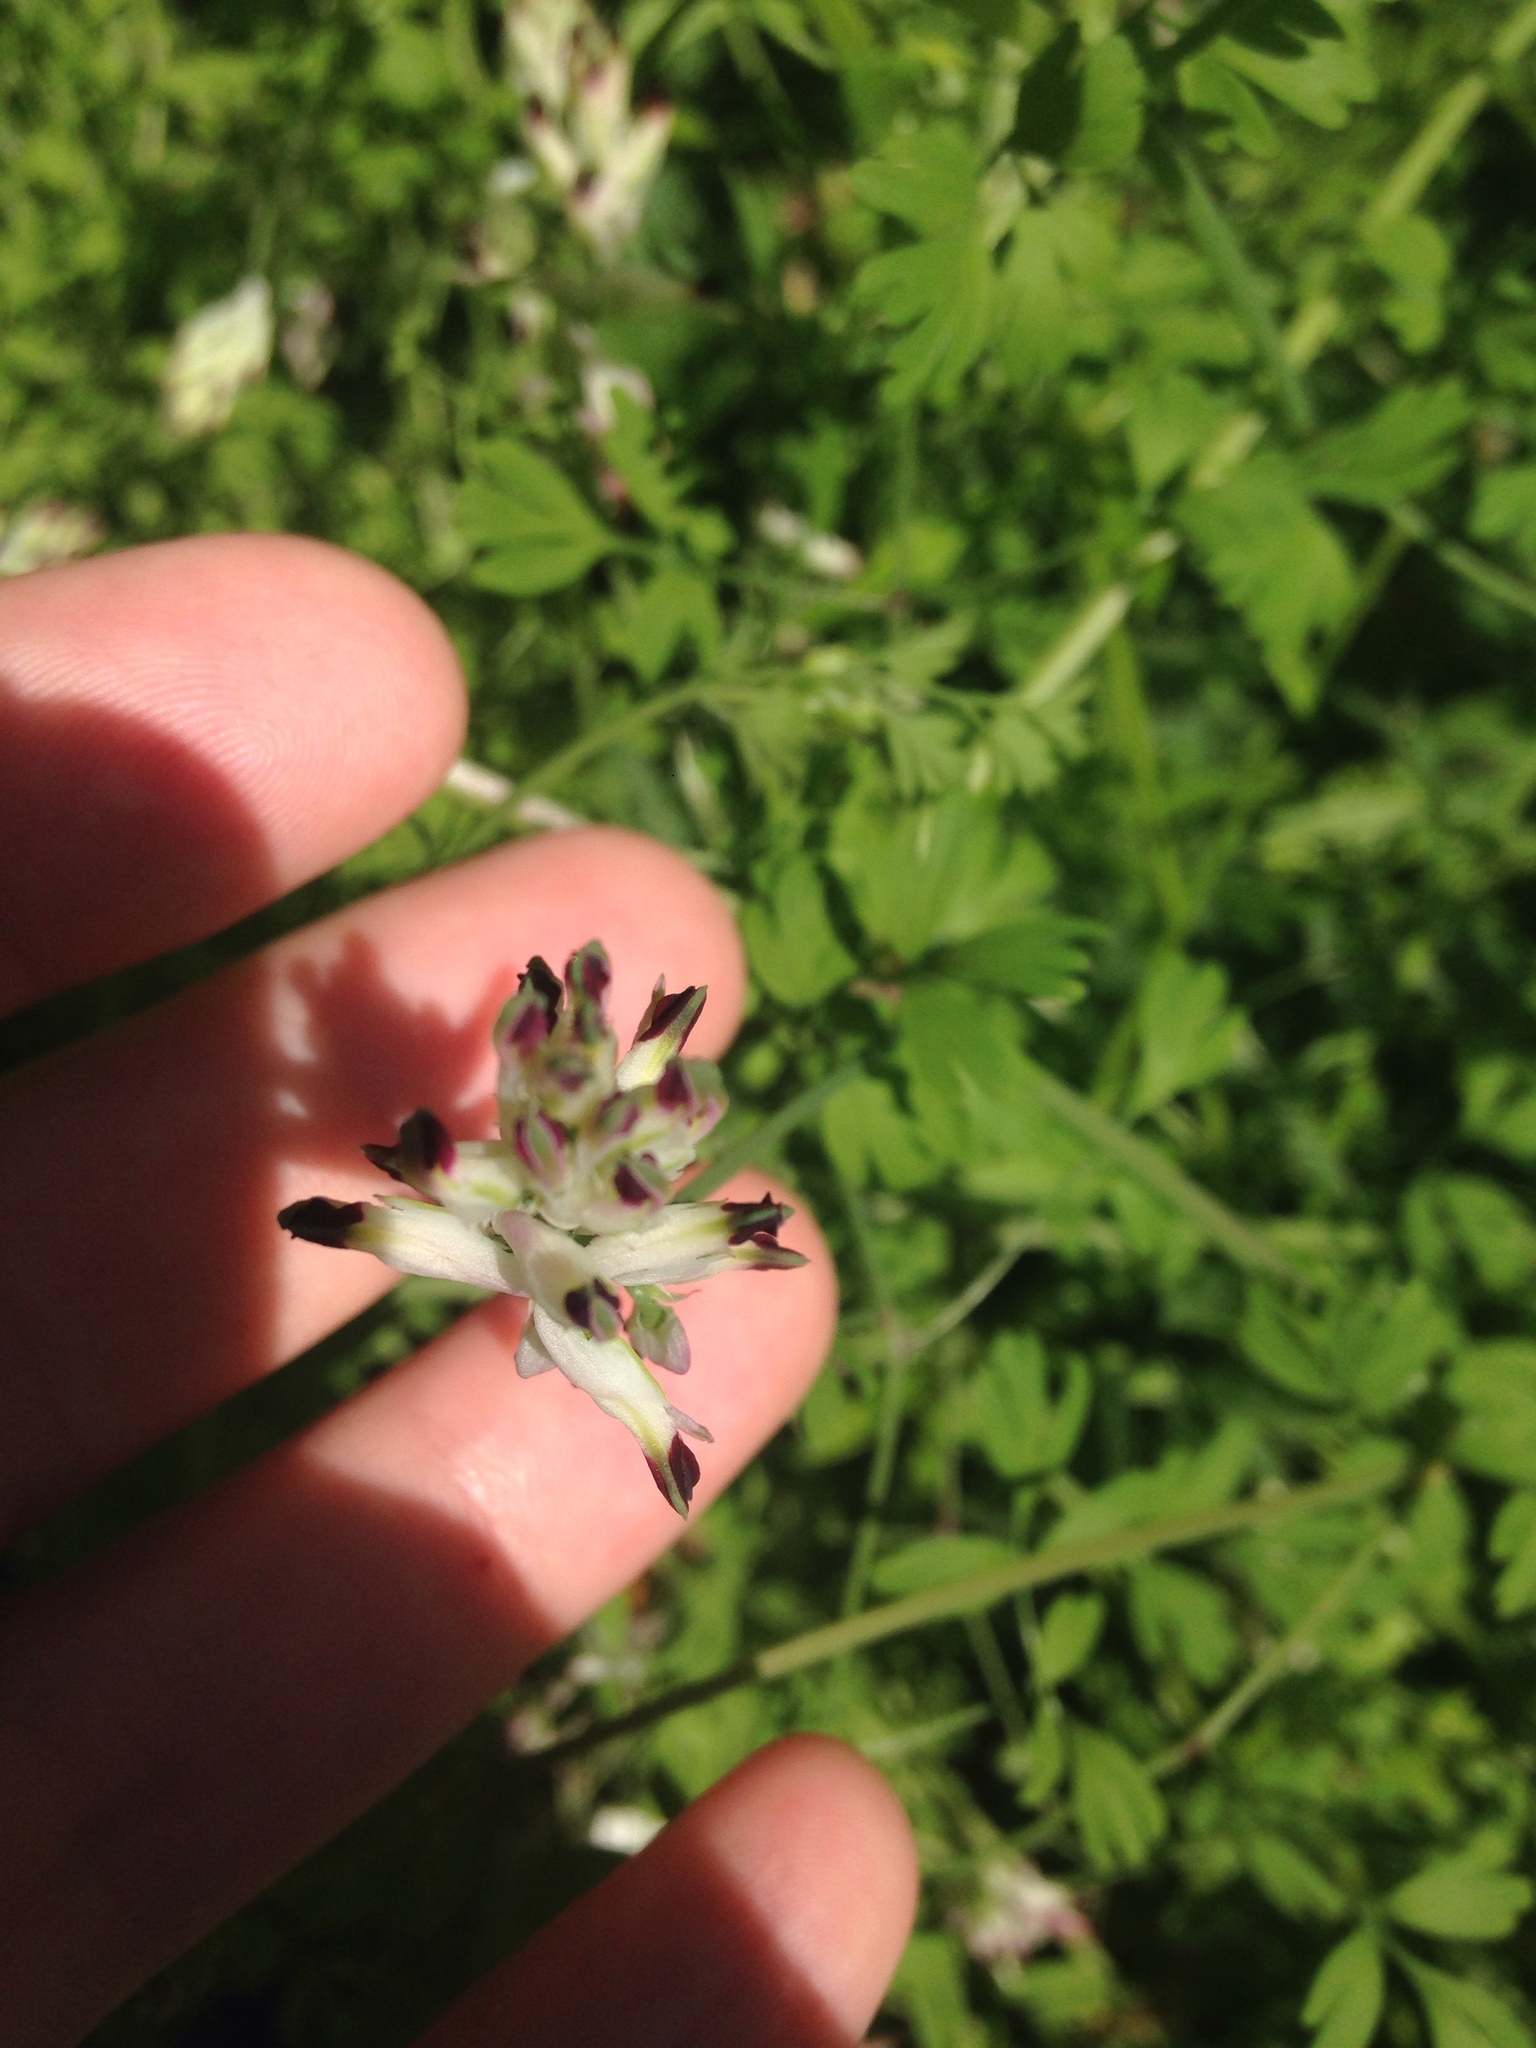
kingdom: Plantae
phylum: Tracheophyta
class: Magnoliopsida
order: Ranunculales
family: Papaveraceae
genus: Fumaria
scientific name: Fumaria capreolata
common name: White ramping-fumitory
